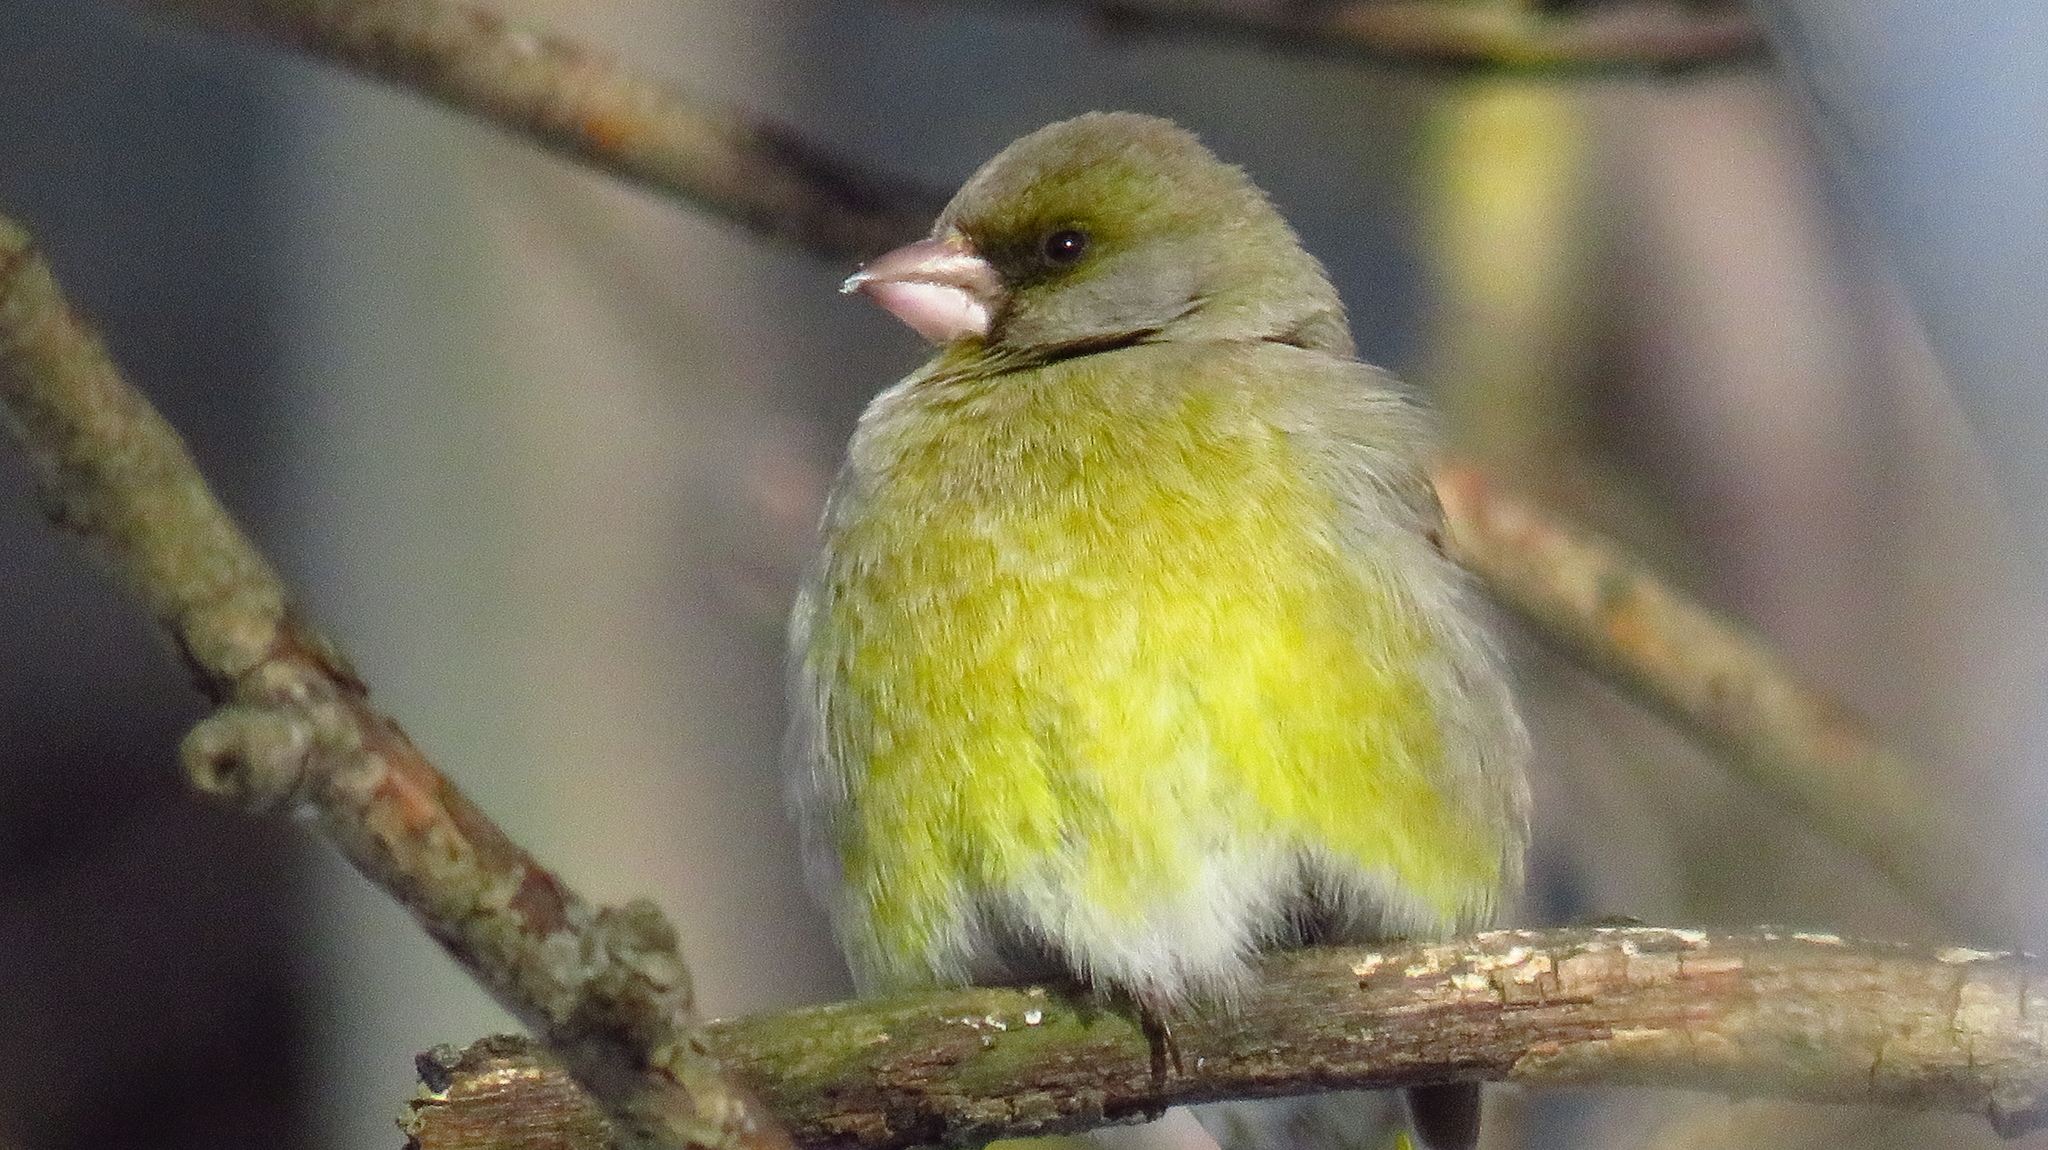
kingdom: Plantae
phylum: Tracheophyta
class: Liliopsida
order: Poales
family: Poaceae
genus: Chloris
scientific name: Chloris chloris
